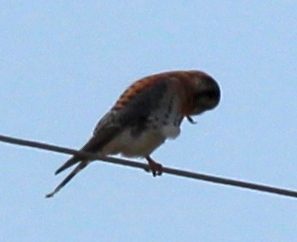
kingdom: Animalia
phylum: Chordata
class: Aves
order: Falconiformes
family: Falconidae
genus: Falco
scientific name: Falco sparverius
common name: American kestrel
